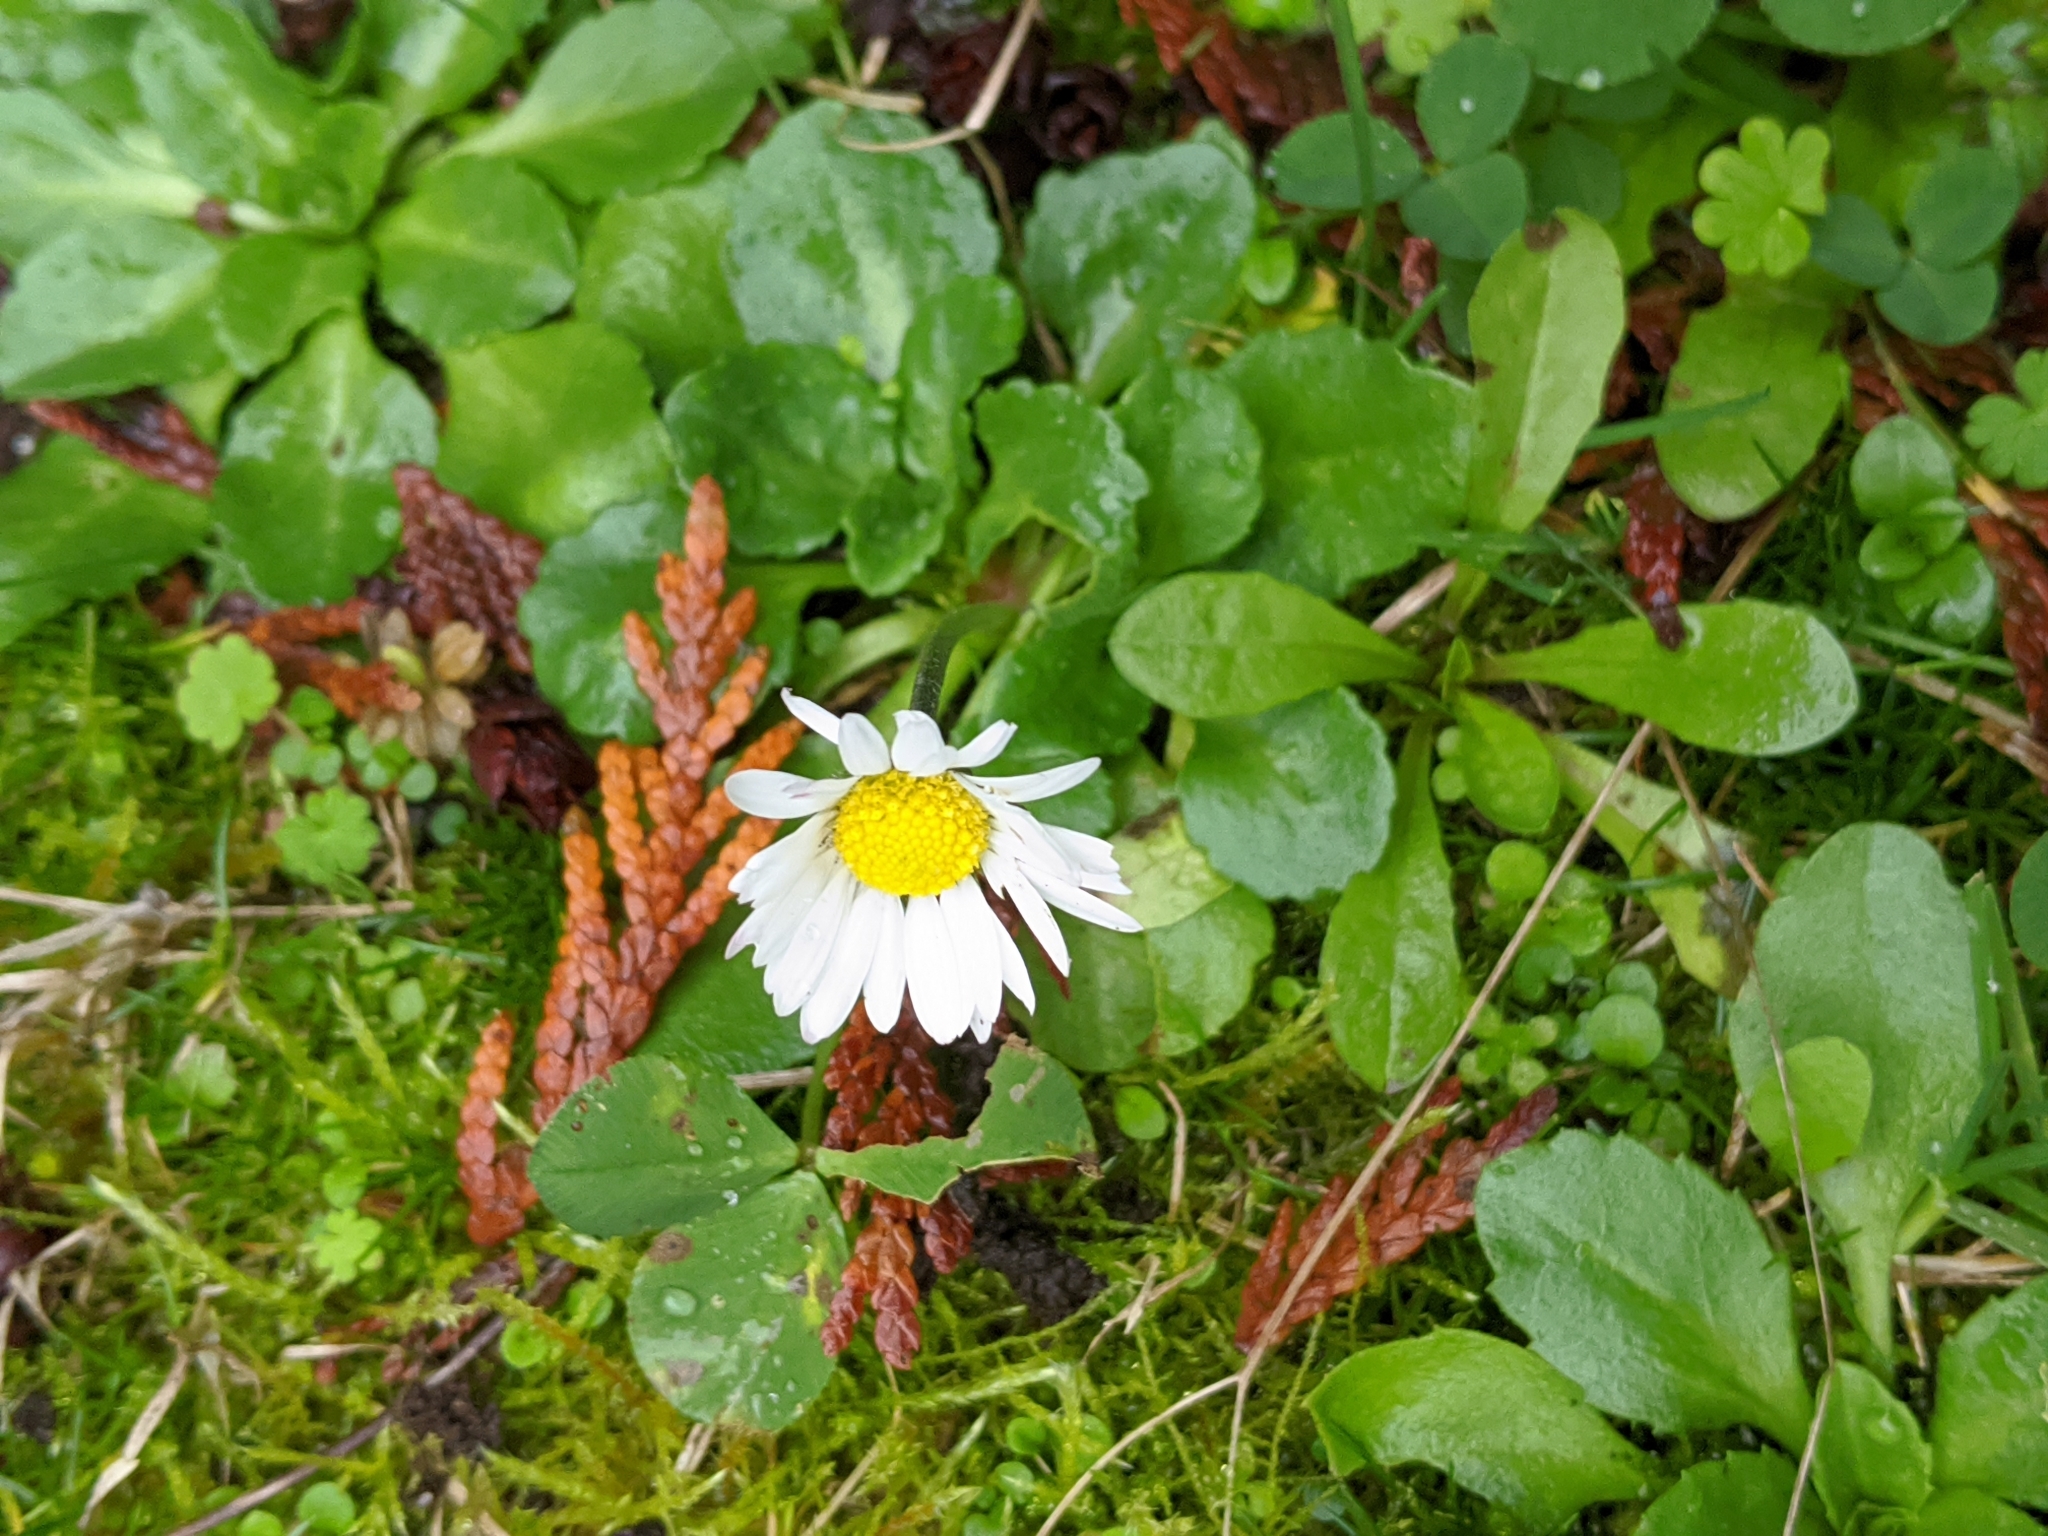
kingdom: Plantae
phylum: Tracheophyta
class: Magnoliopsida
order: Asterales
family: Asteraceae
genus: Bellis
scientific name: Bellis perennis
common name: Lawndaisy
